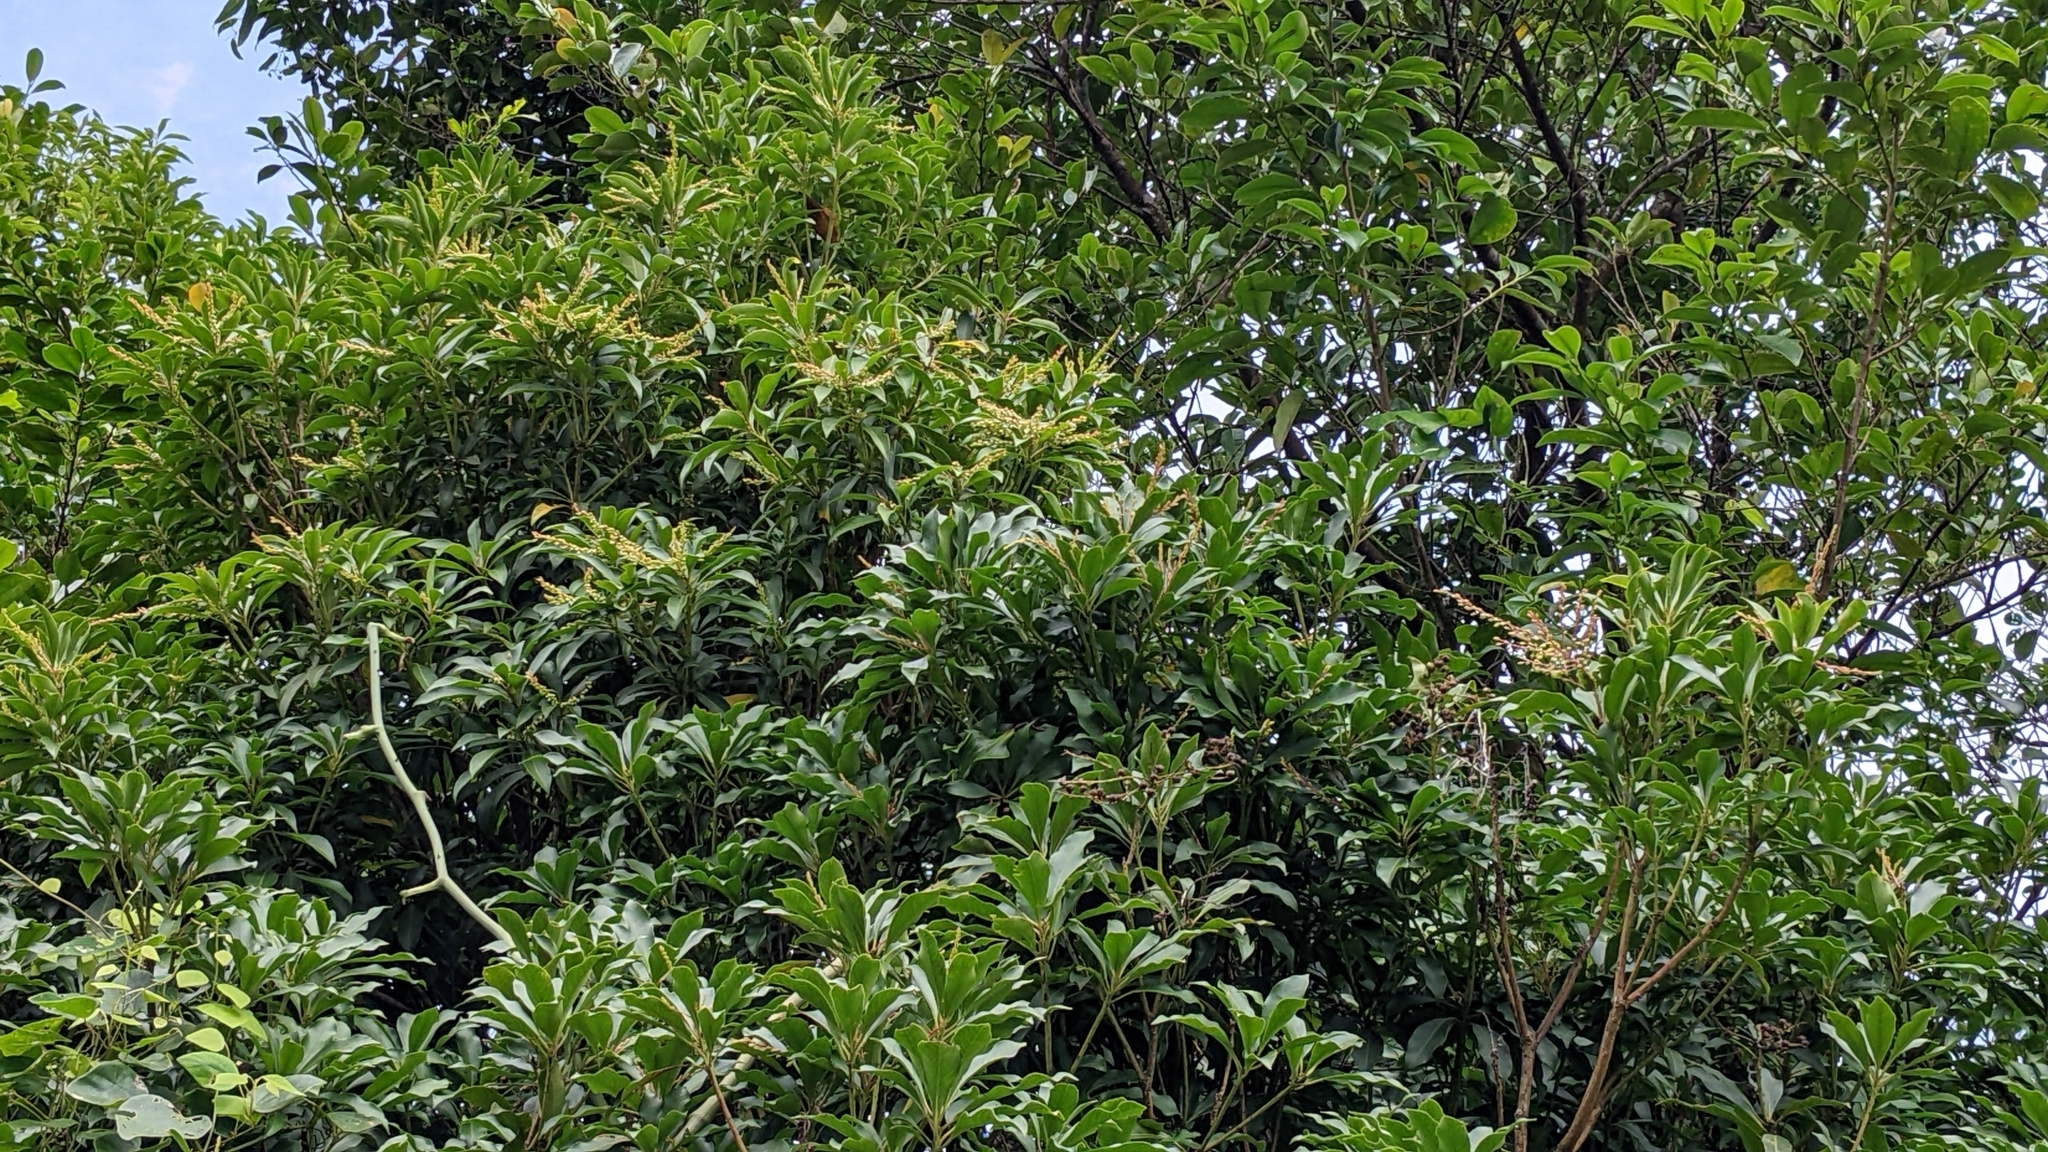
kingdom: Plantae
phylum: Tracheophyta
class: Magnoliopsida
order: Ericales
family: Ericaceae
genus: Pieris
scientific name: Pieris japonica
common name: Japanese pieris
